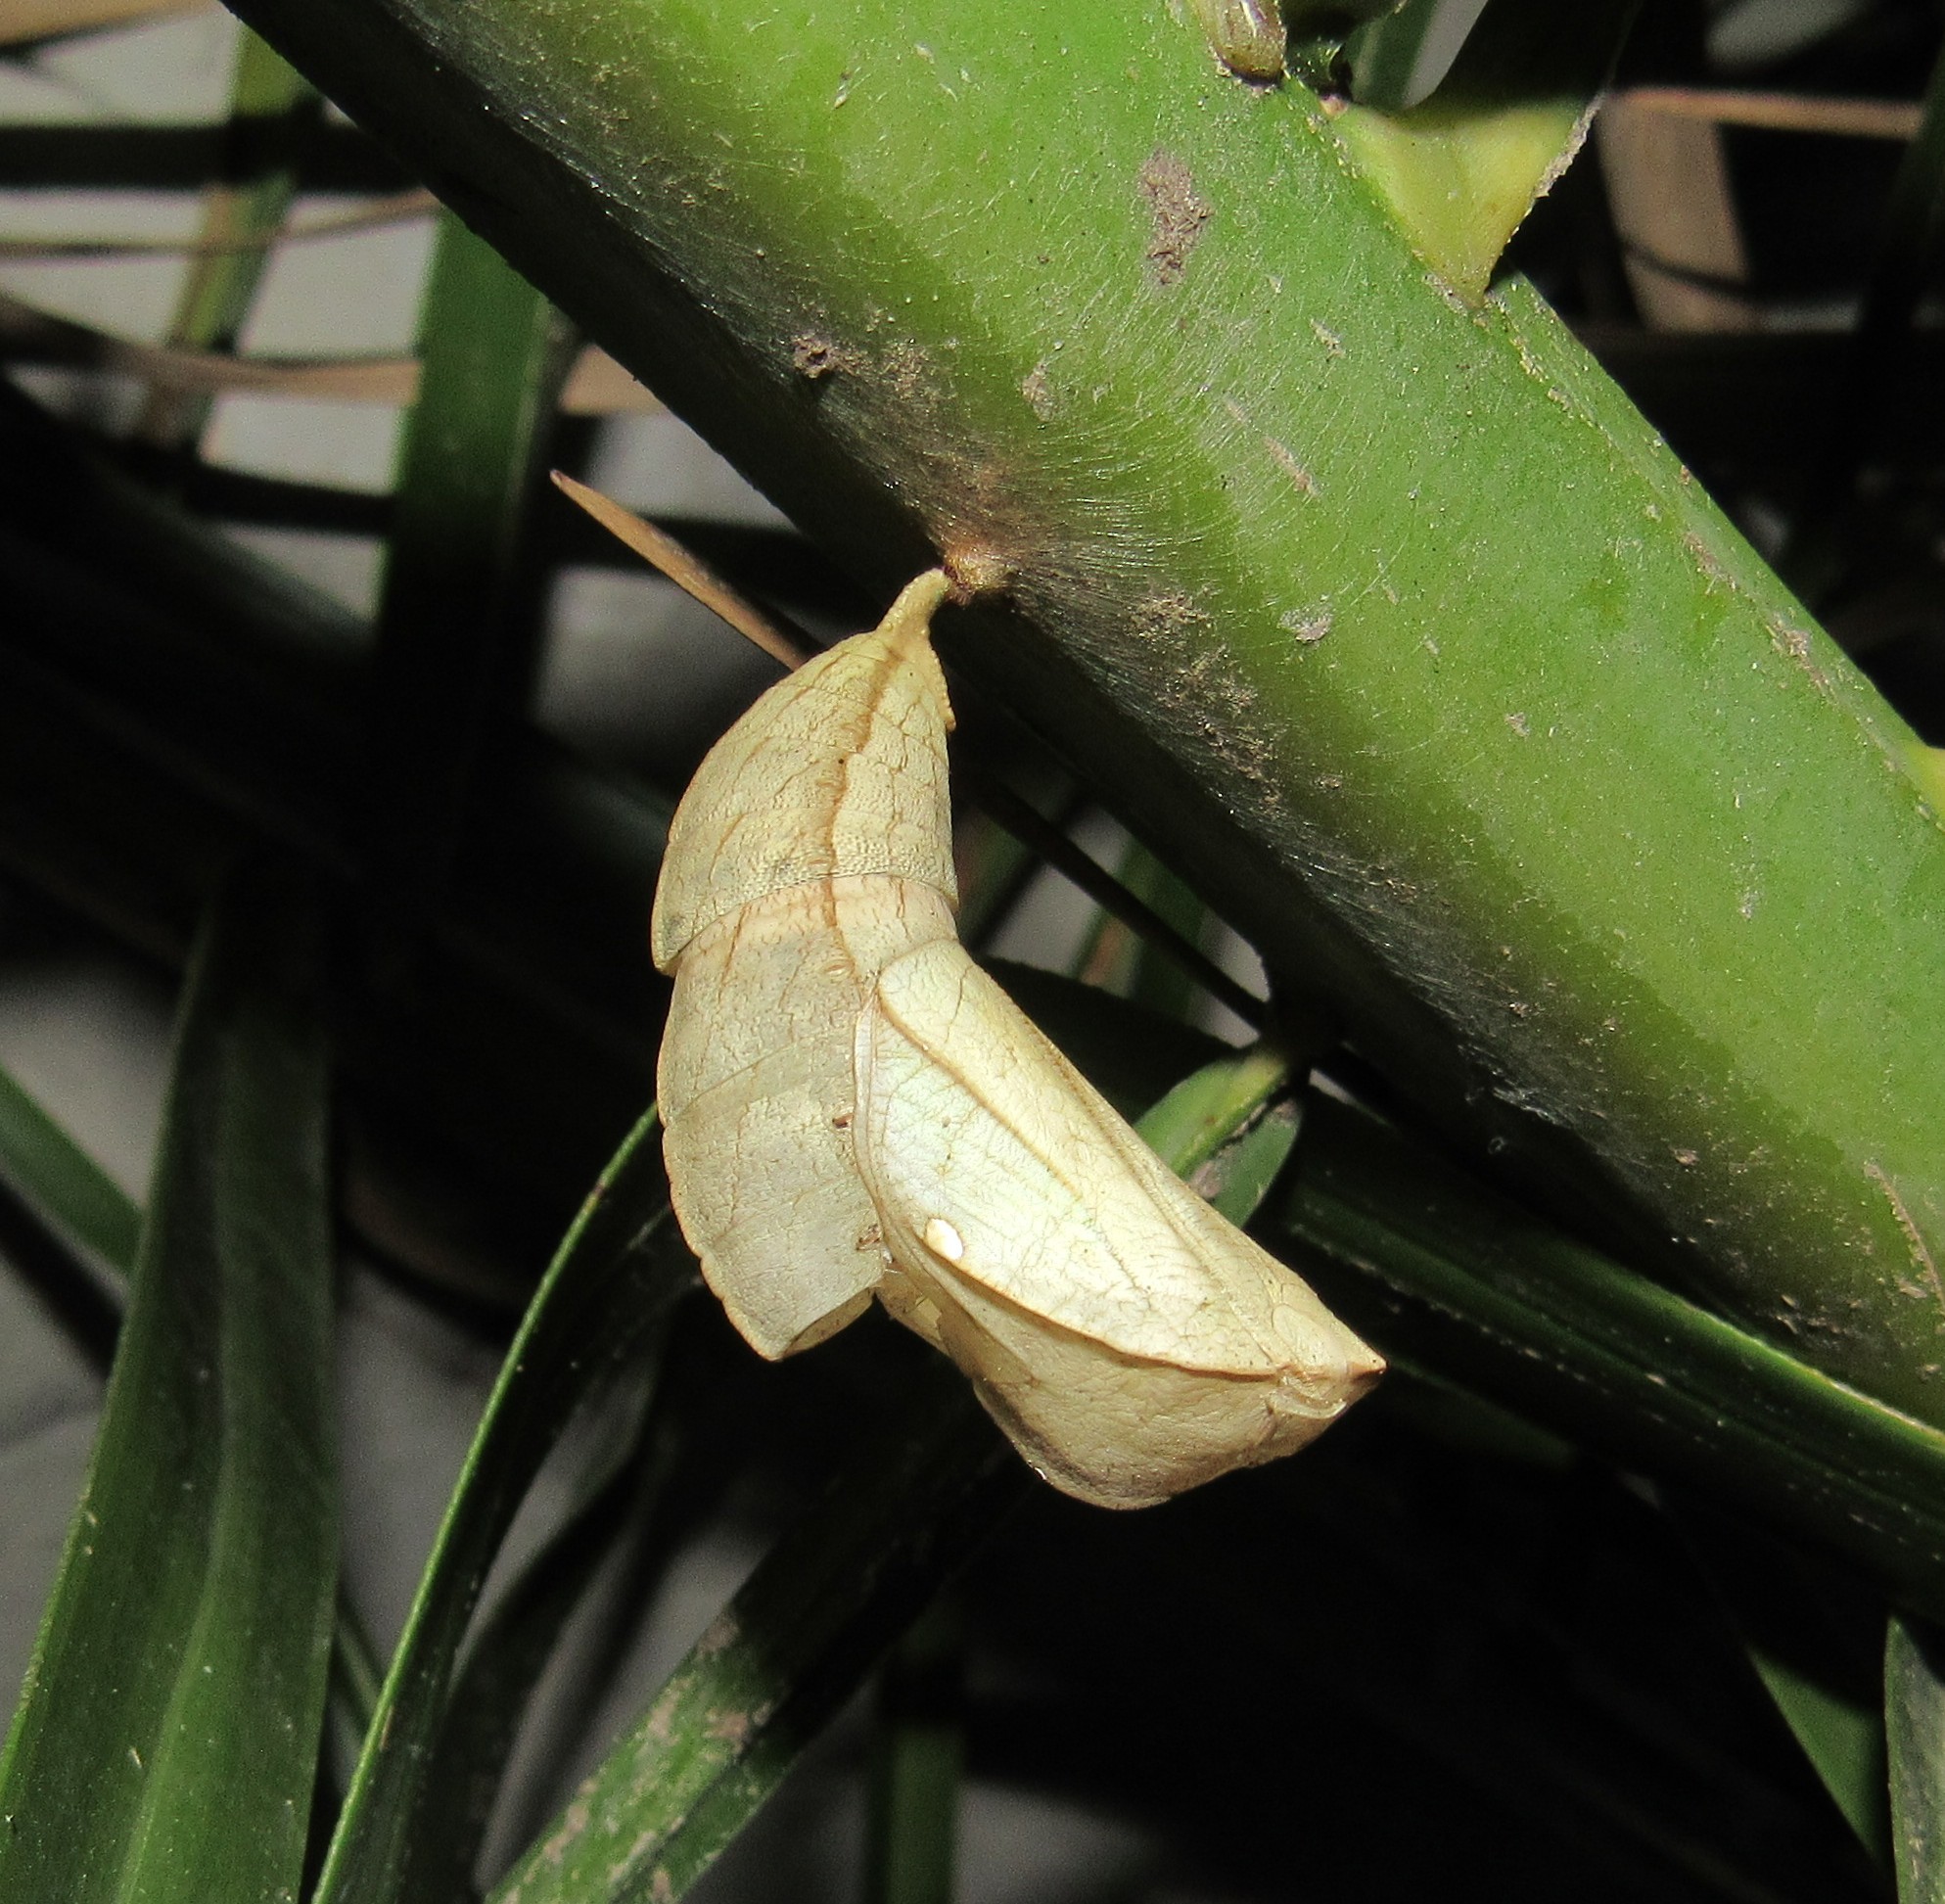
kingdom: Animalia
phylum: Arthropoda
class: Insecta
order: Lepidoptera
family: Nymphalidae
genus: Opsiphanes
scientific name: Opsiphanes invirae
